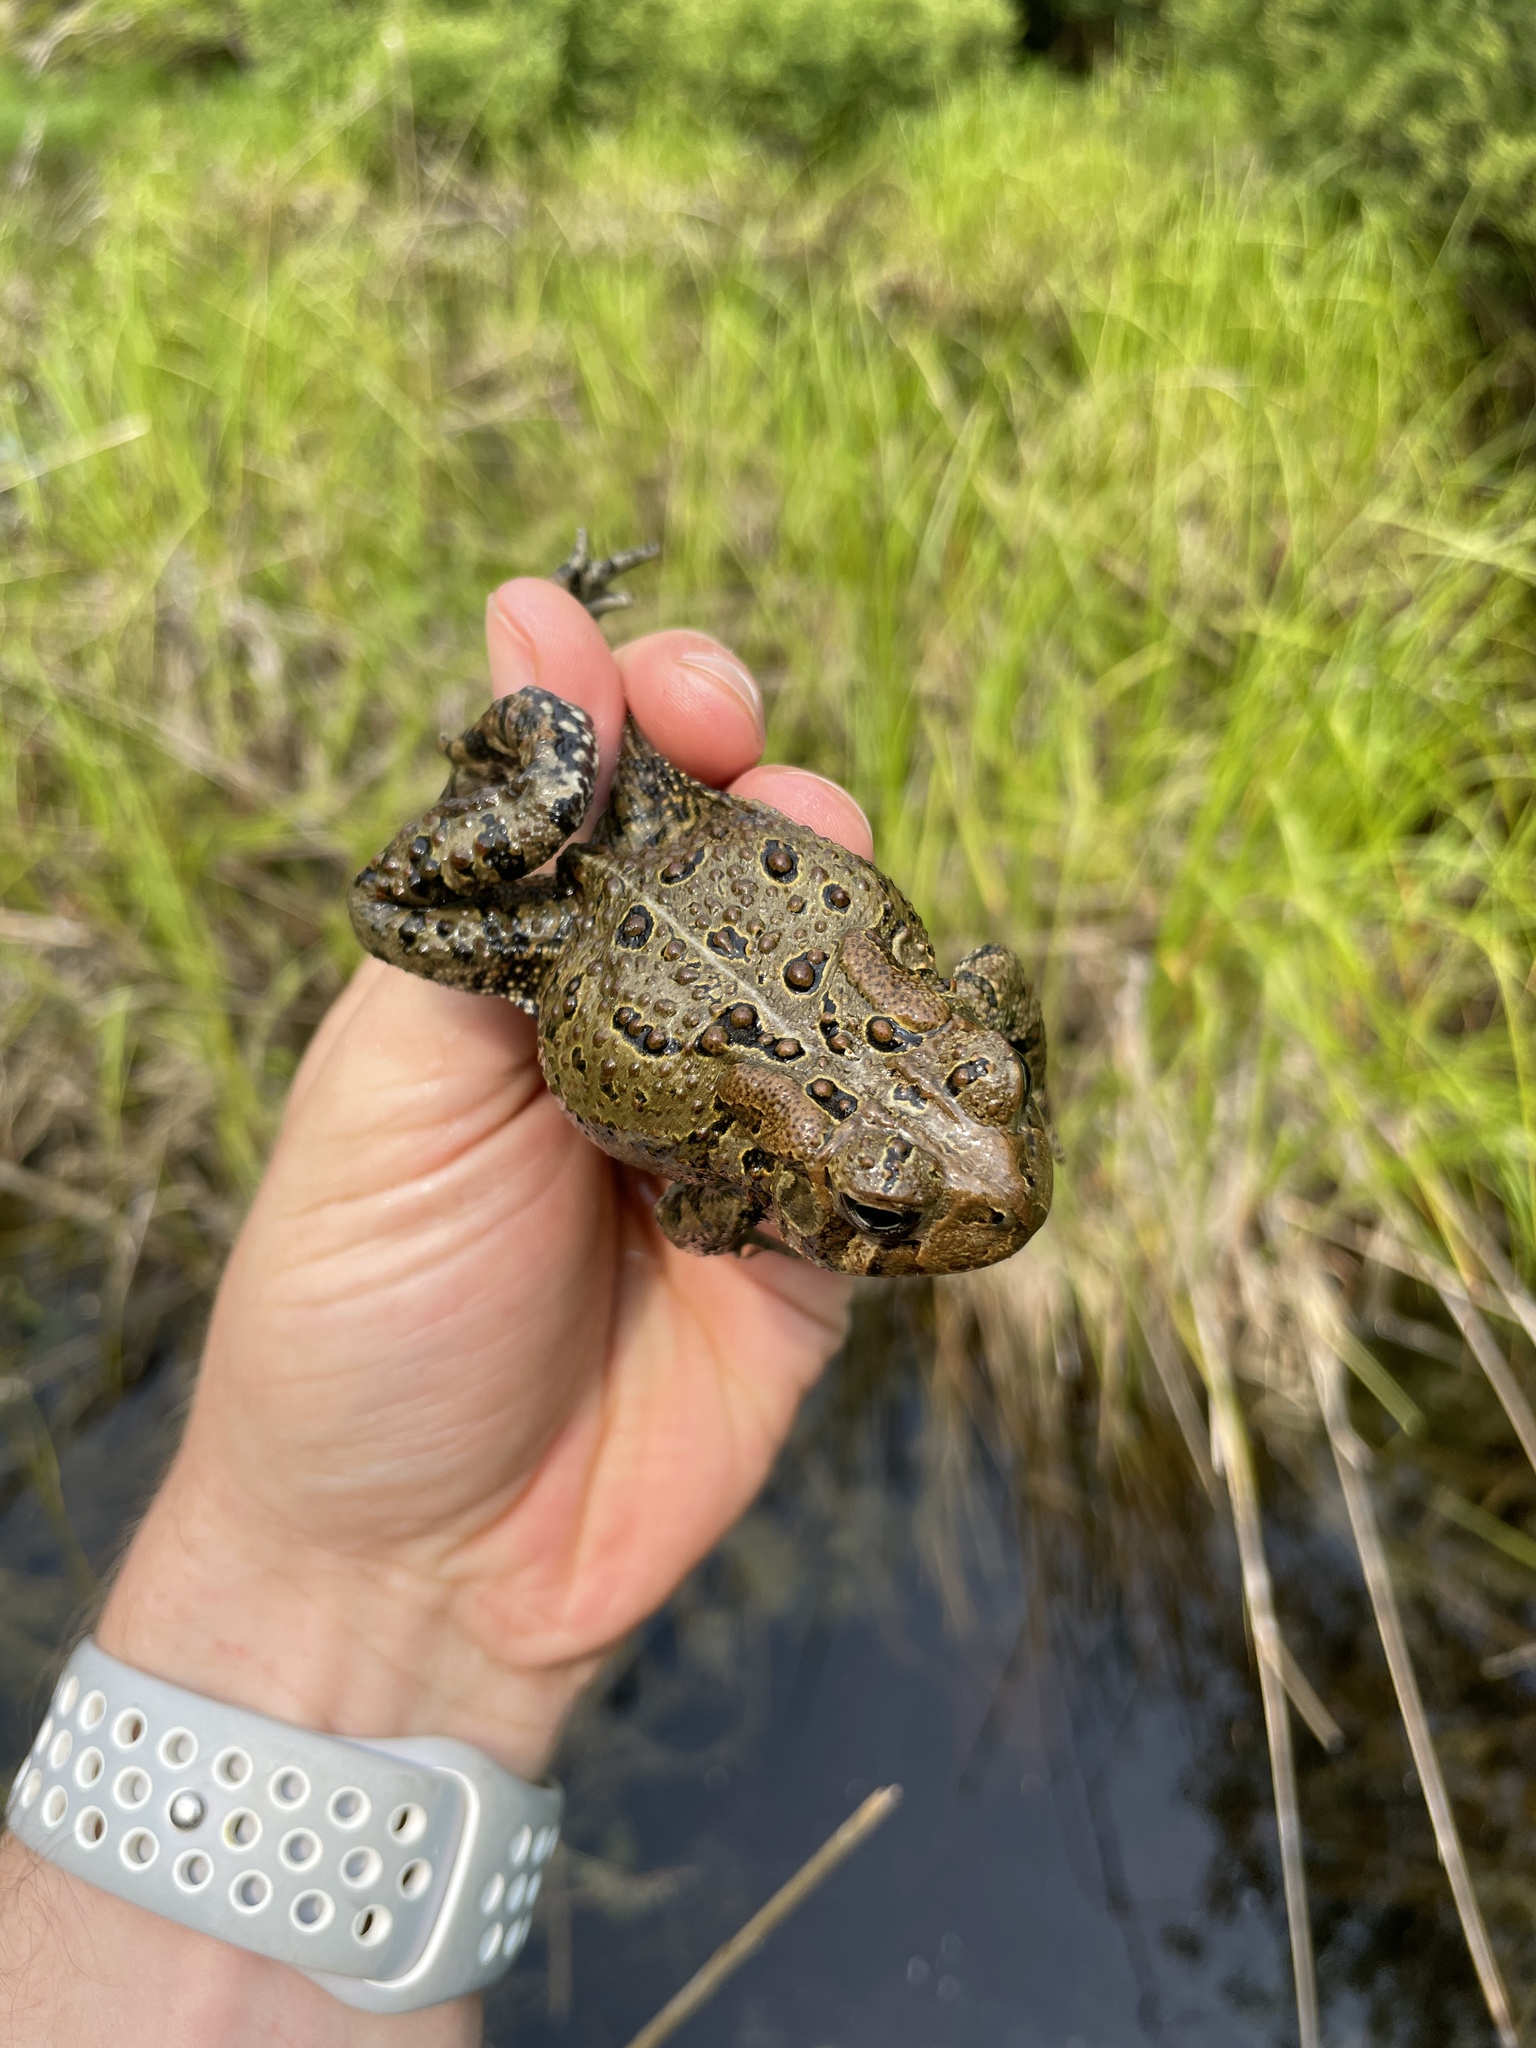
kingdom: Animalia
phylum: Chordata
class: Amphibia
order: Anura
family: Bufonidae
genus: Anaxyrus
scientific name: Anaxyrus americanus
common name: American toad
